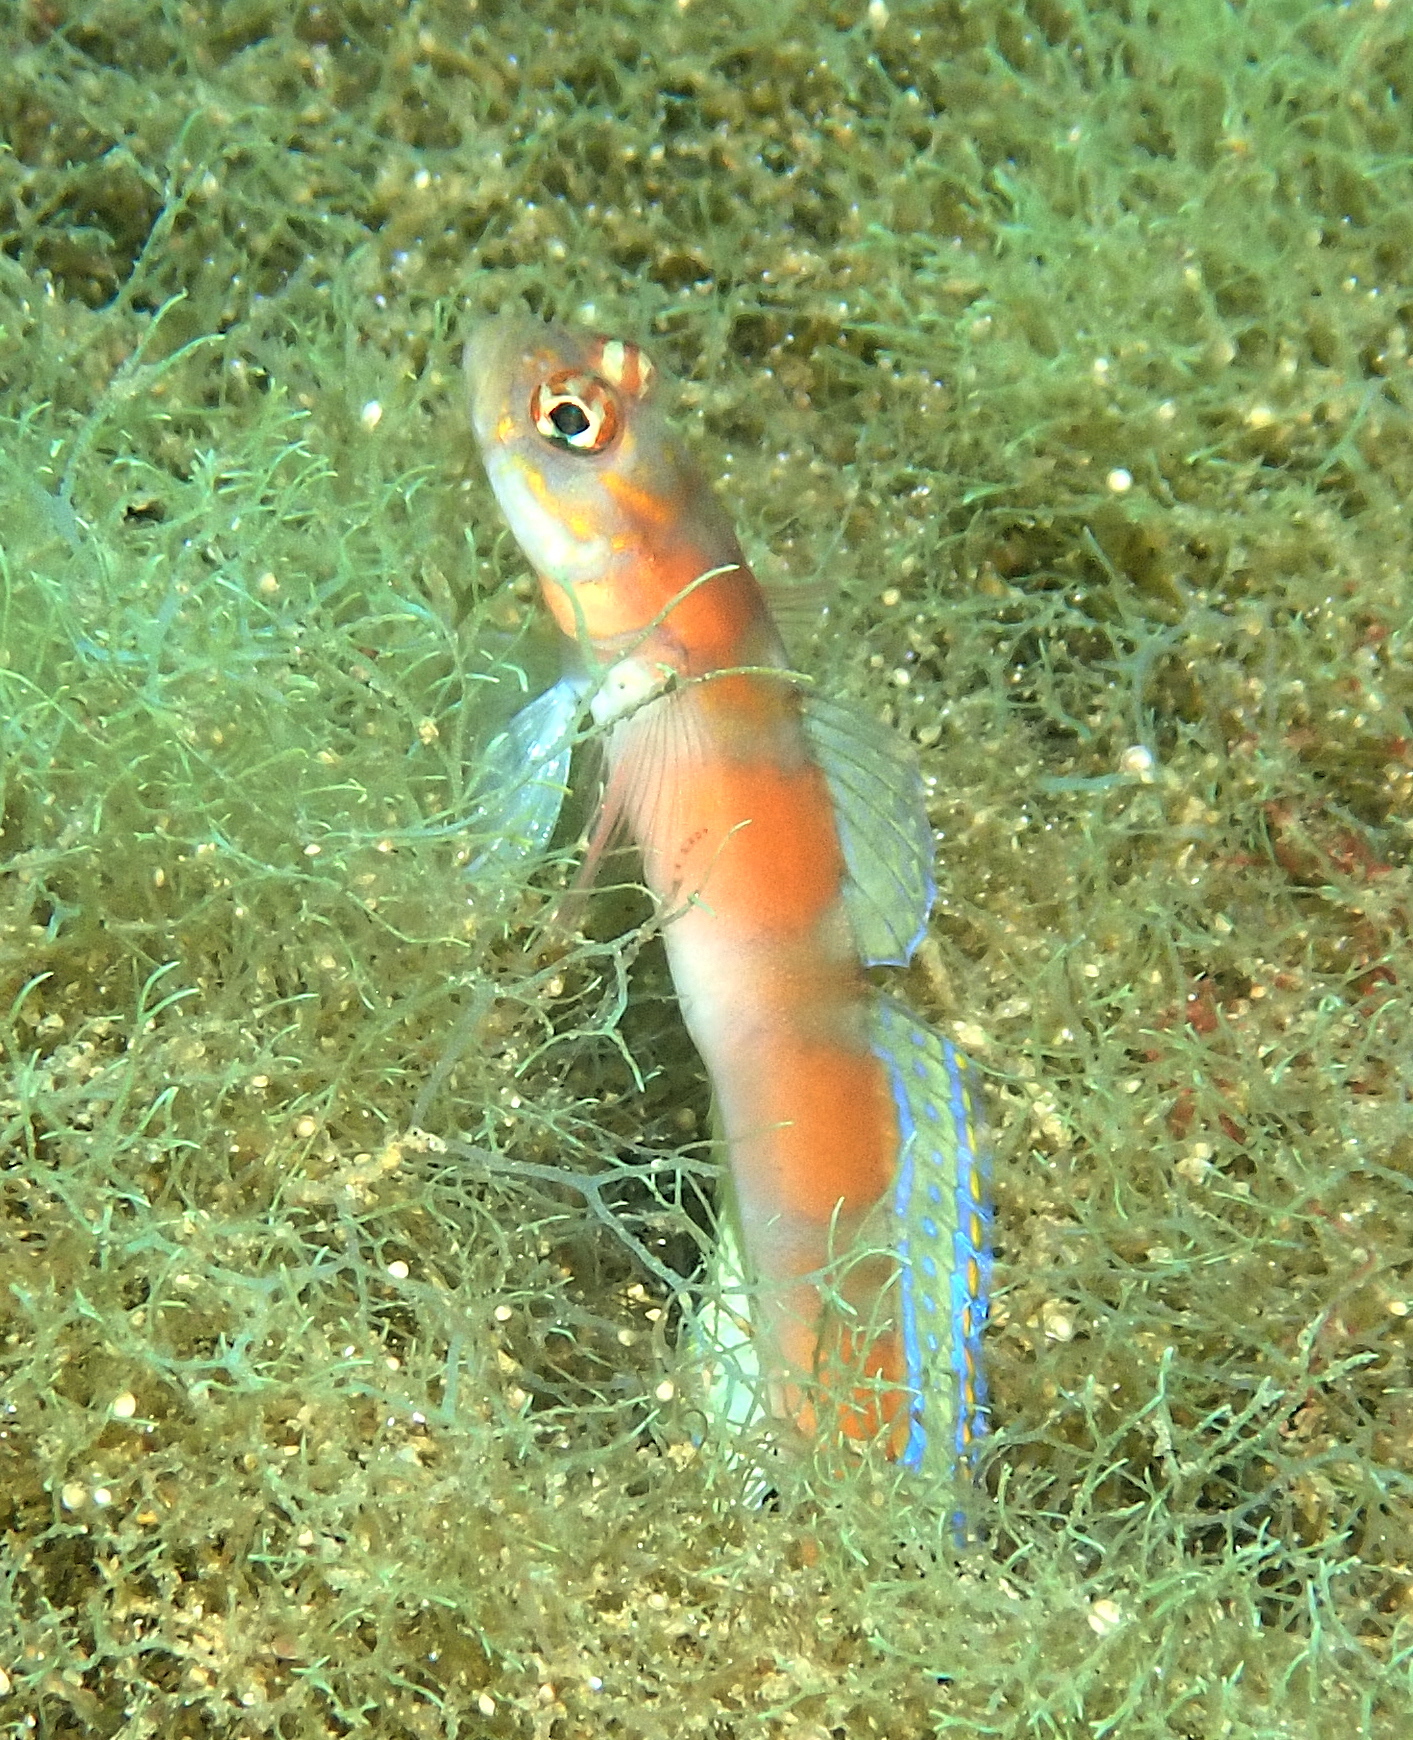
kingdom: Animalia
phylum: Chordata
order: Perciformes
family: Gobiidae
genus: Amblyeleotris
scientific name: Amblyeleotris yanoi
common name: Flag-tail shrimp-goby
